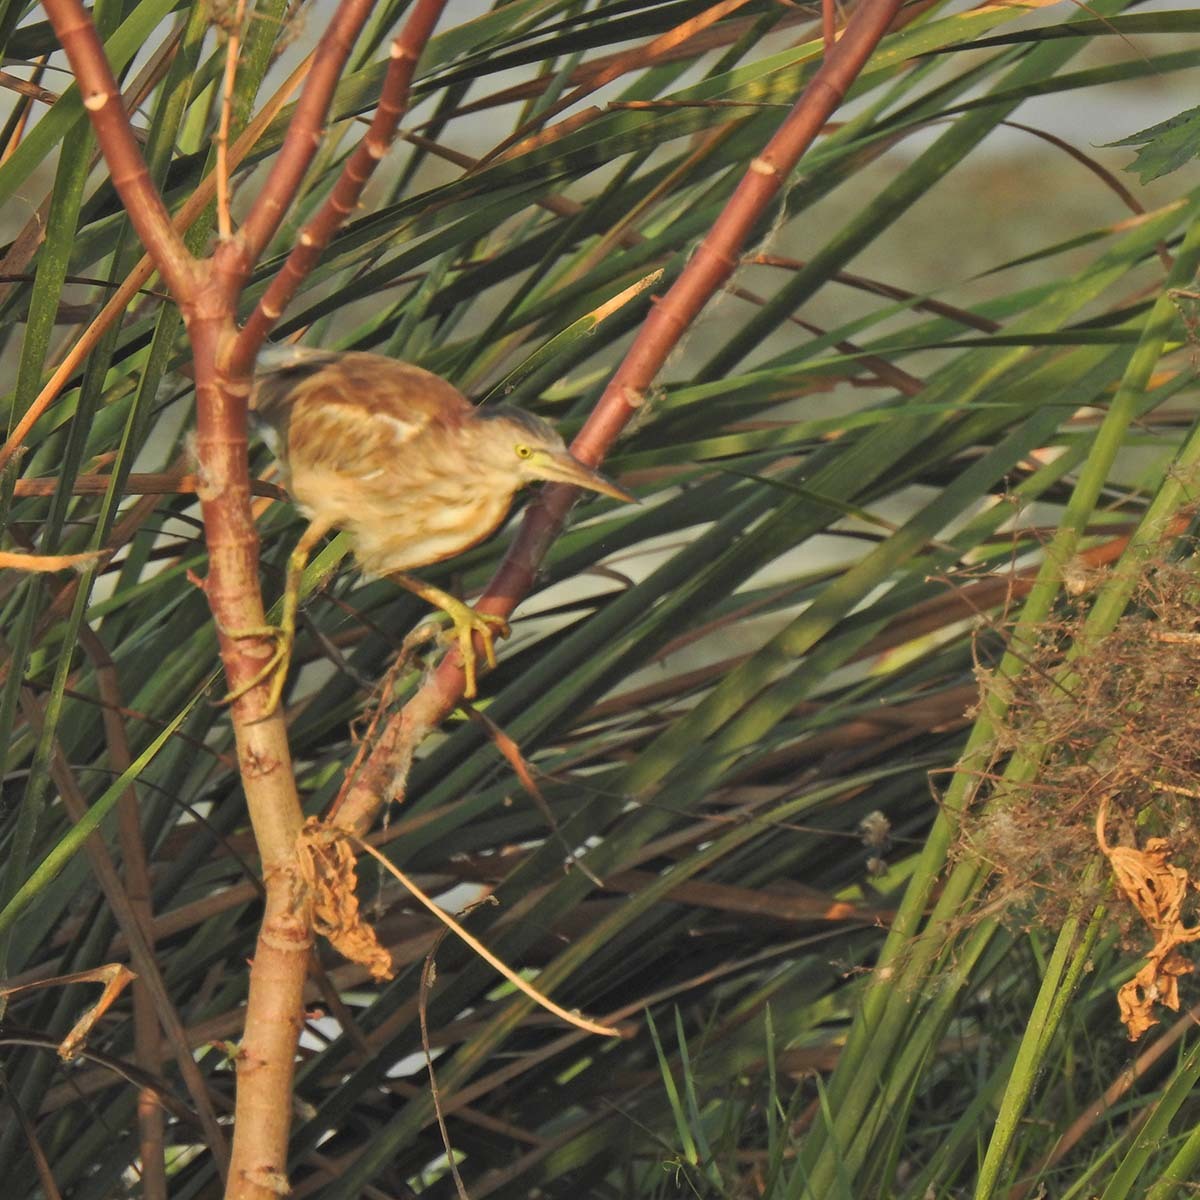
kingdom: Animalia
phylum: Chordata
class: Aves
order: Pelecaniformes
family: Ardeidae
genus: Ixobrychus
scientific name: Ixobrychus sinensis
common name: Yellow bittern
